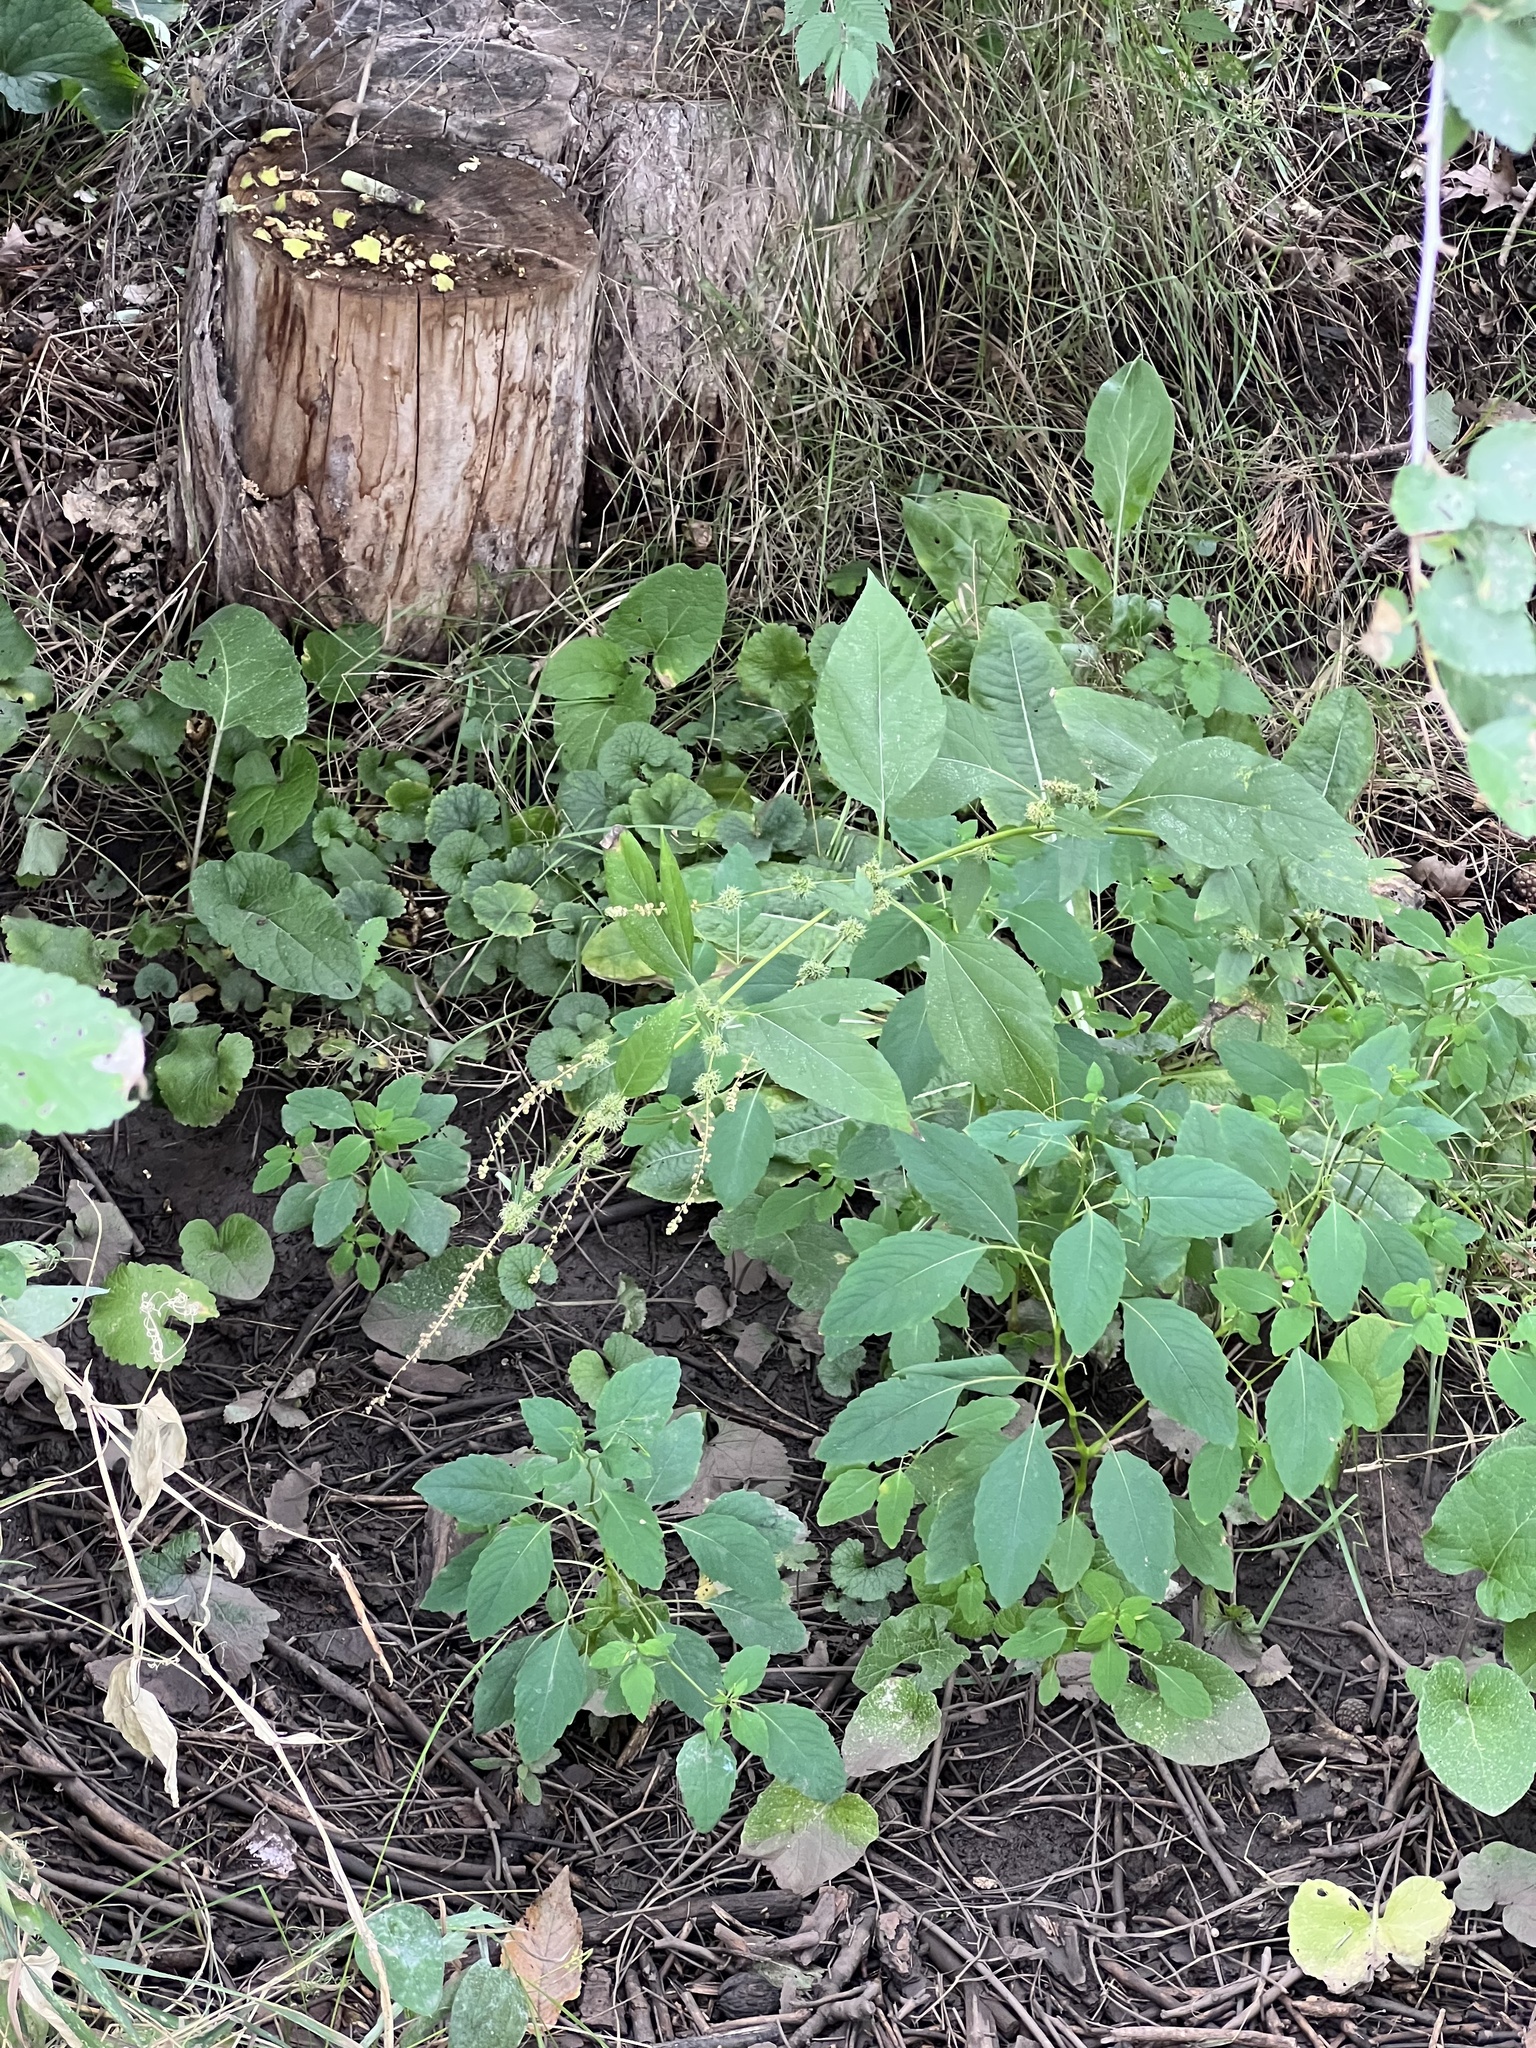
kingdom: Plantae
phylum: Tracheophyta
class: Magnoliopsida
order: Asterales
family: Asteraceae
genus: Ambrosia
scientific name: Ambrosia trifida
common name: Giant ragweed
